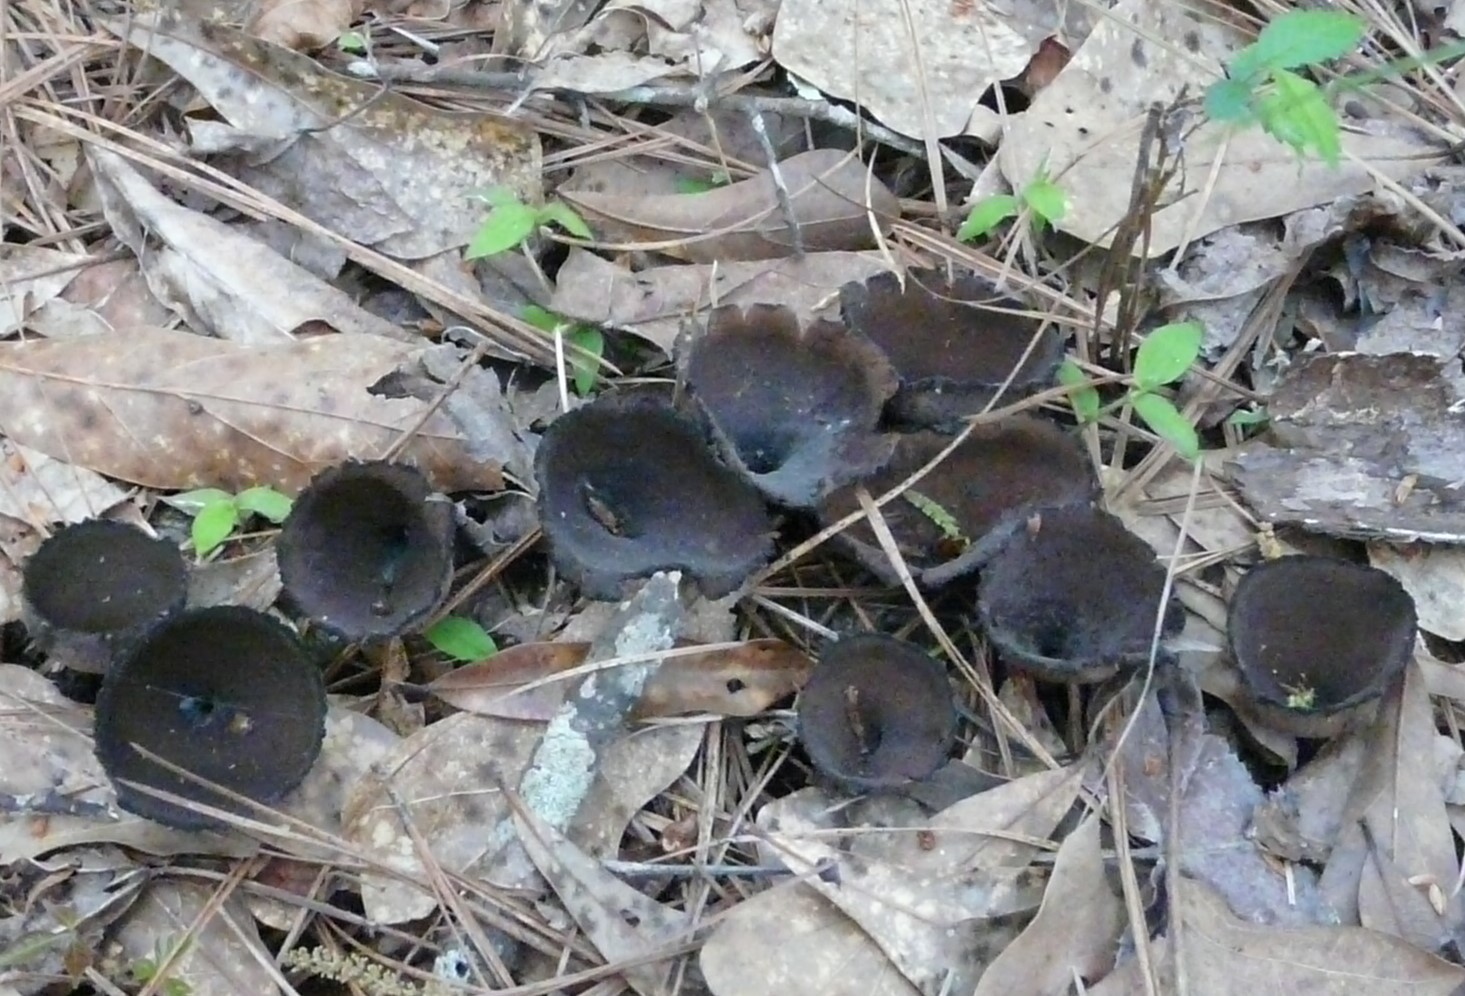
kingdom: Fungi
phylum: Ascomycota
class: Pezizomycetes
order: Pezizales
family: Sarcosomataceae
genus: Urnula
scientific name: Urnula craterium
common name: Devil's urn
